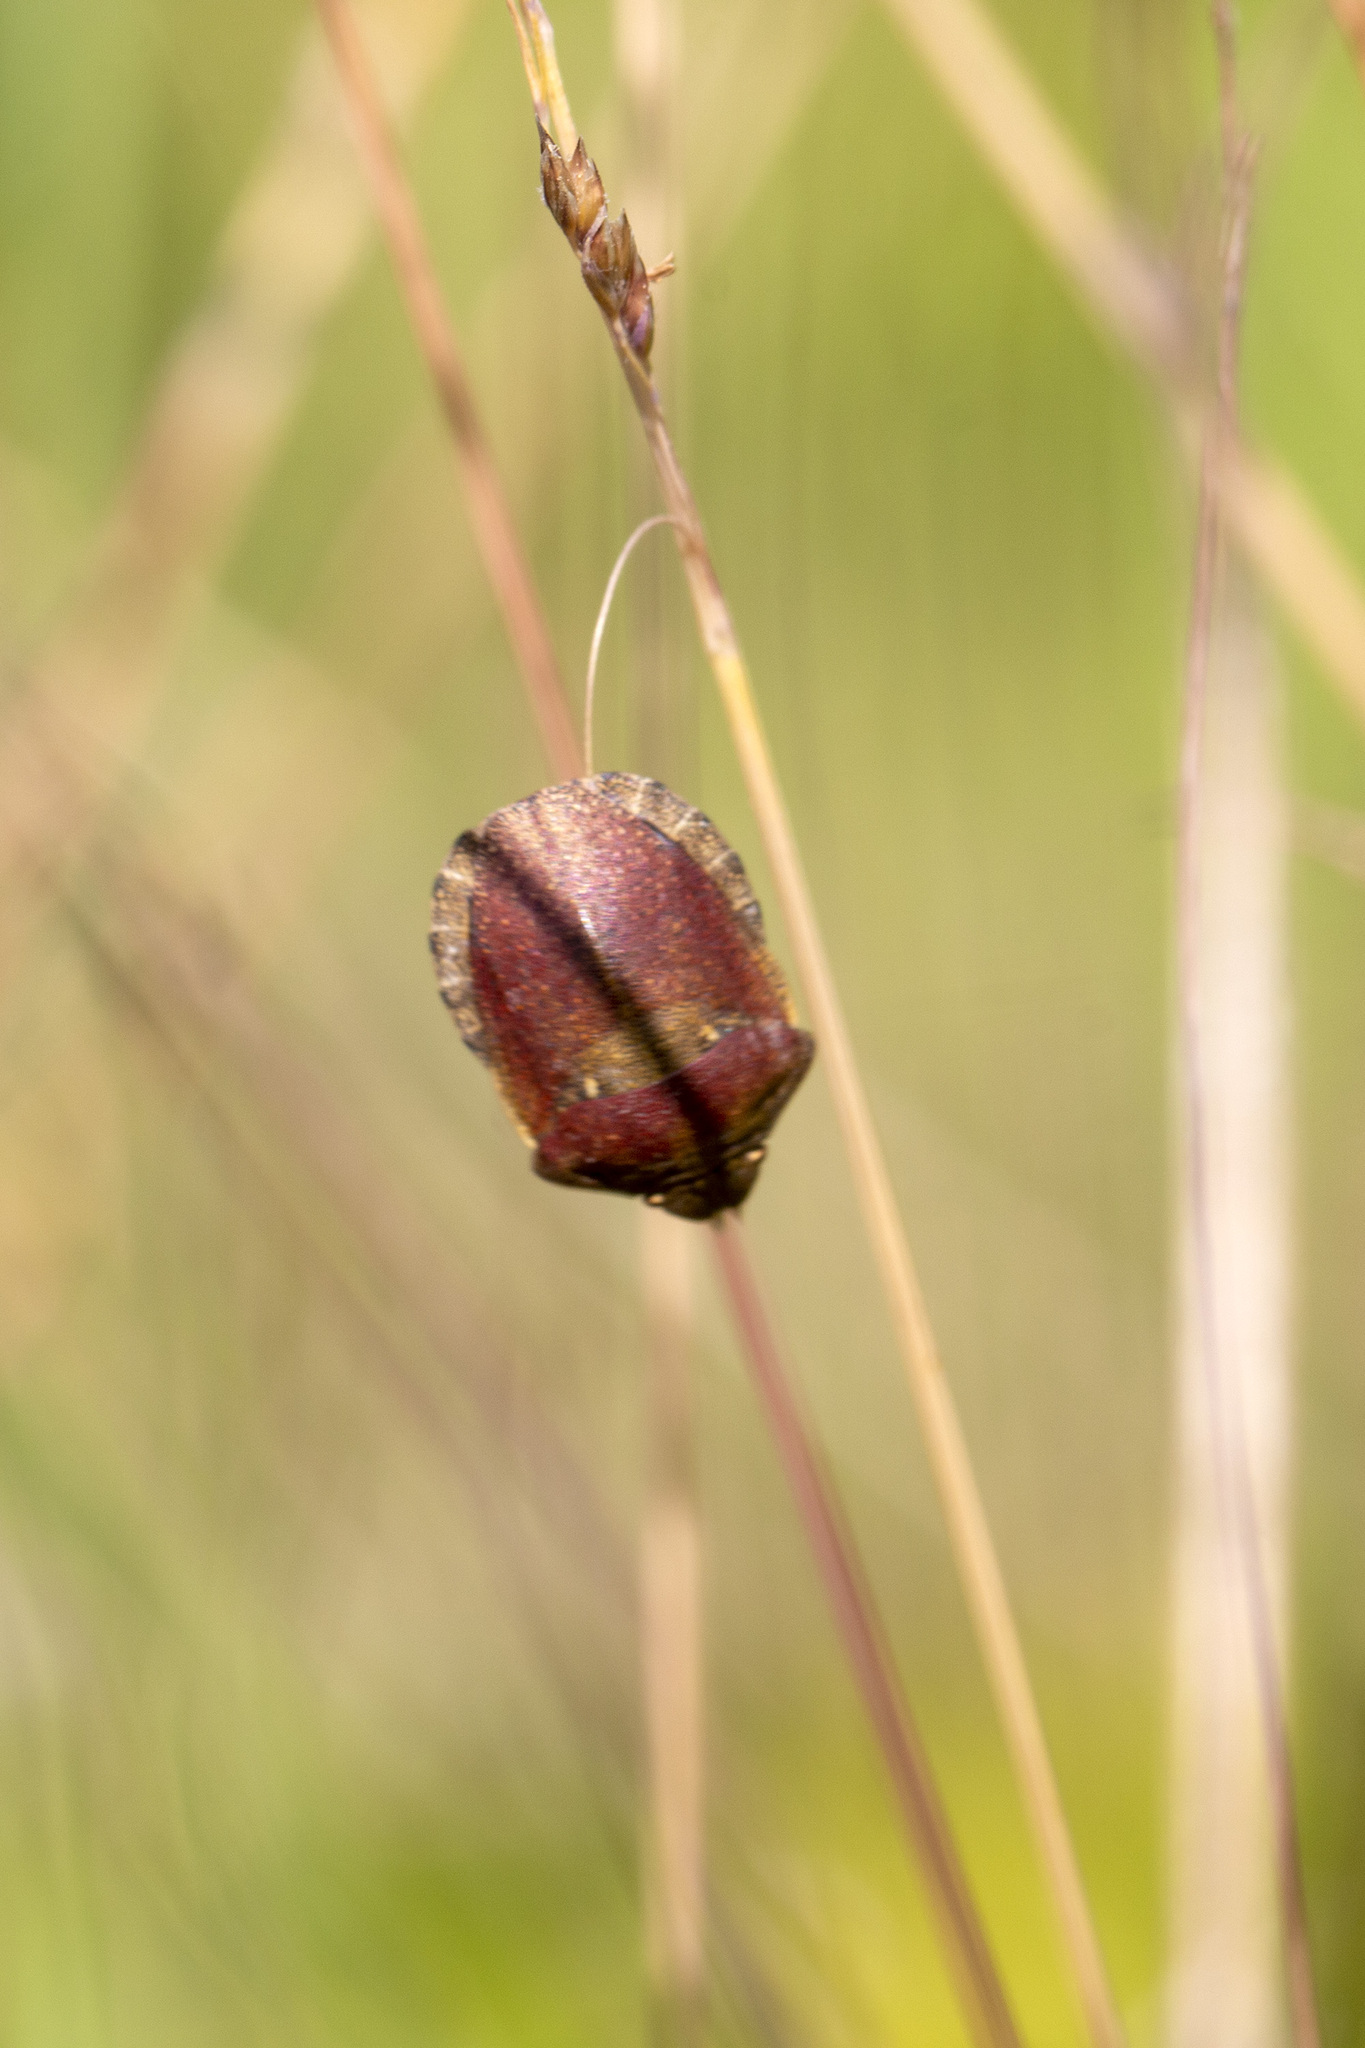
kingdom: Animalia
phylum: Arthropoda
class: Insecta
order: Hemiptera
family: Scutelleridae
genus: Eurygaster
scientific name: Eurygaster testudinaria
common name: Tortoise bug
